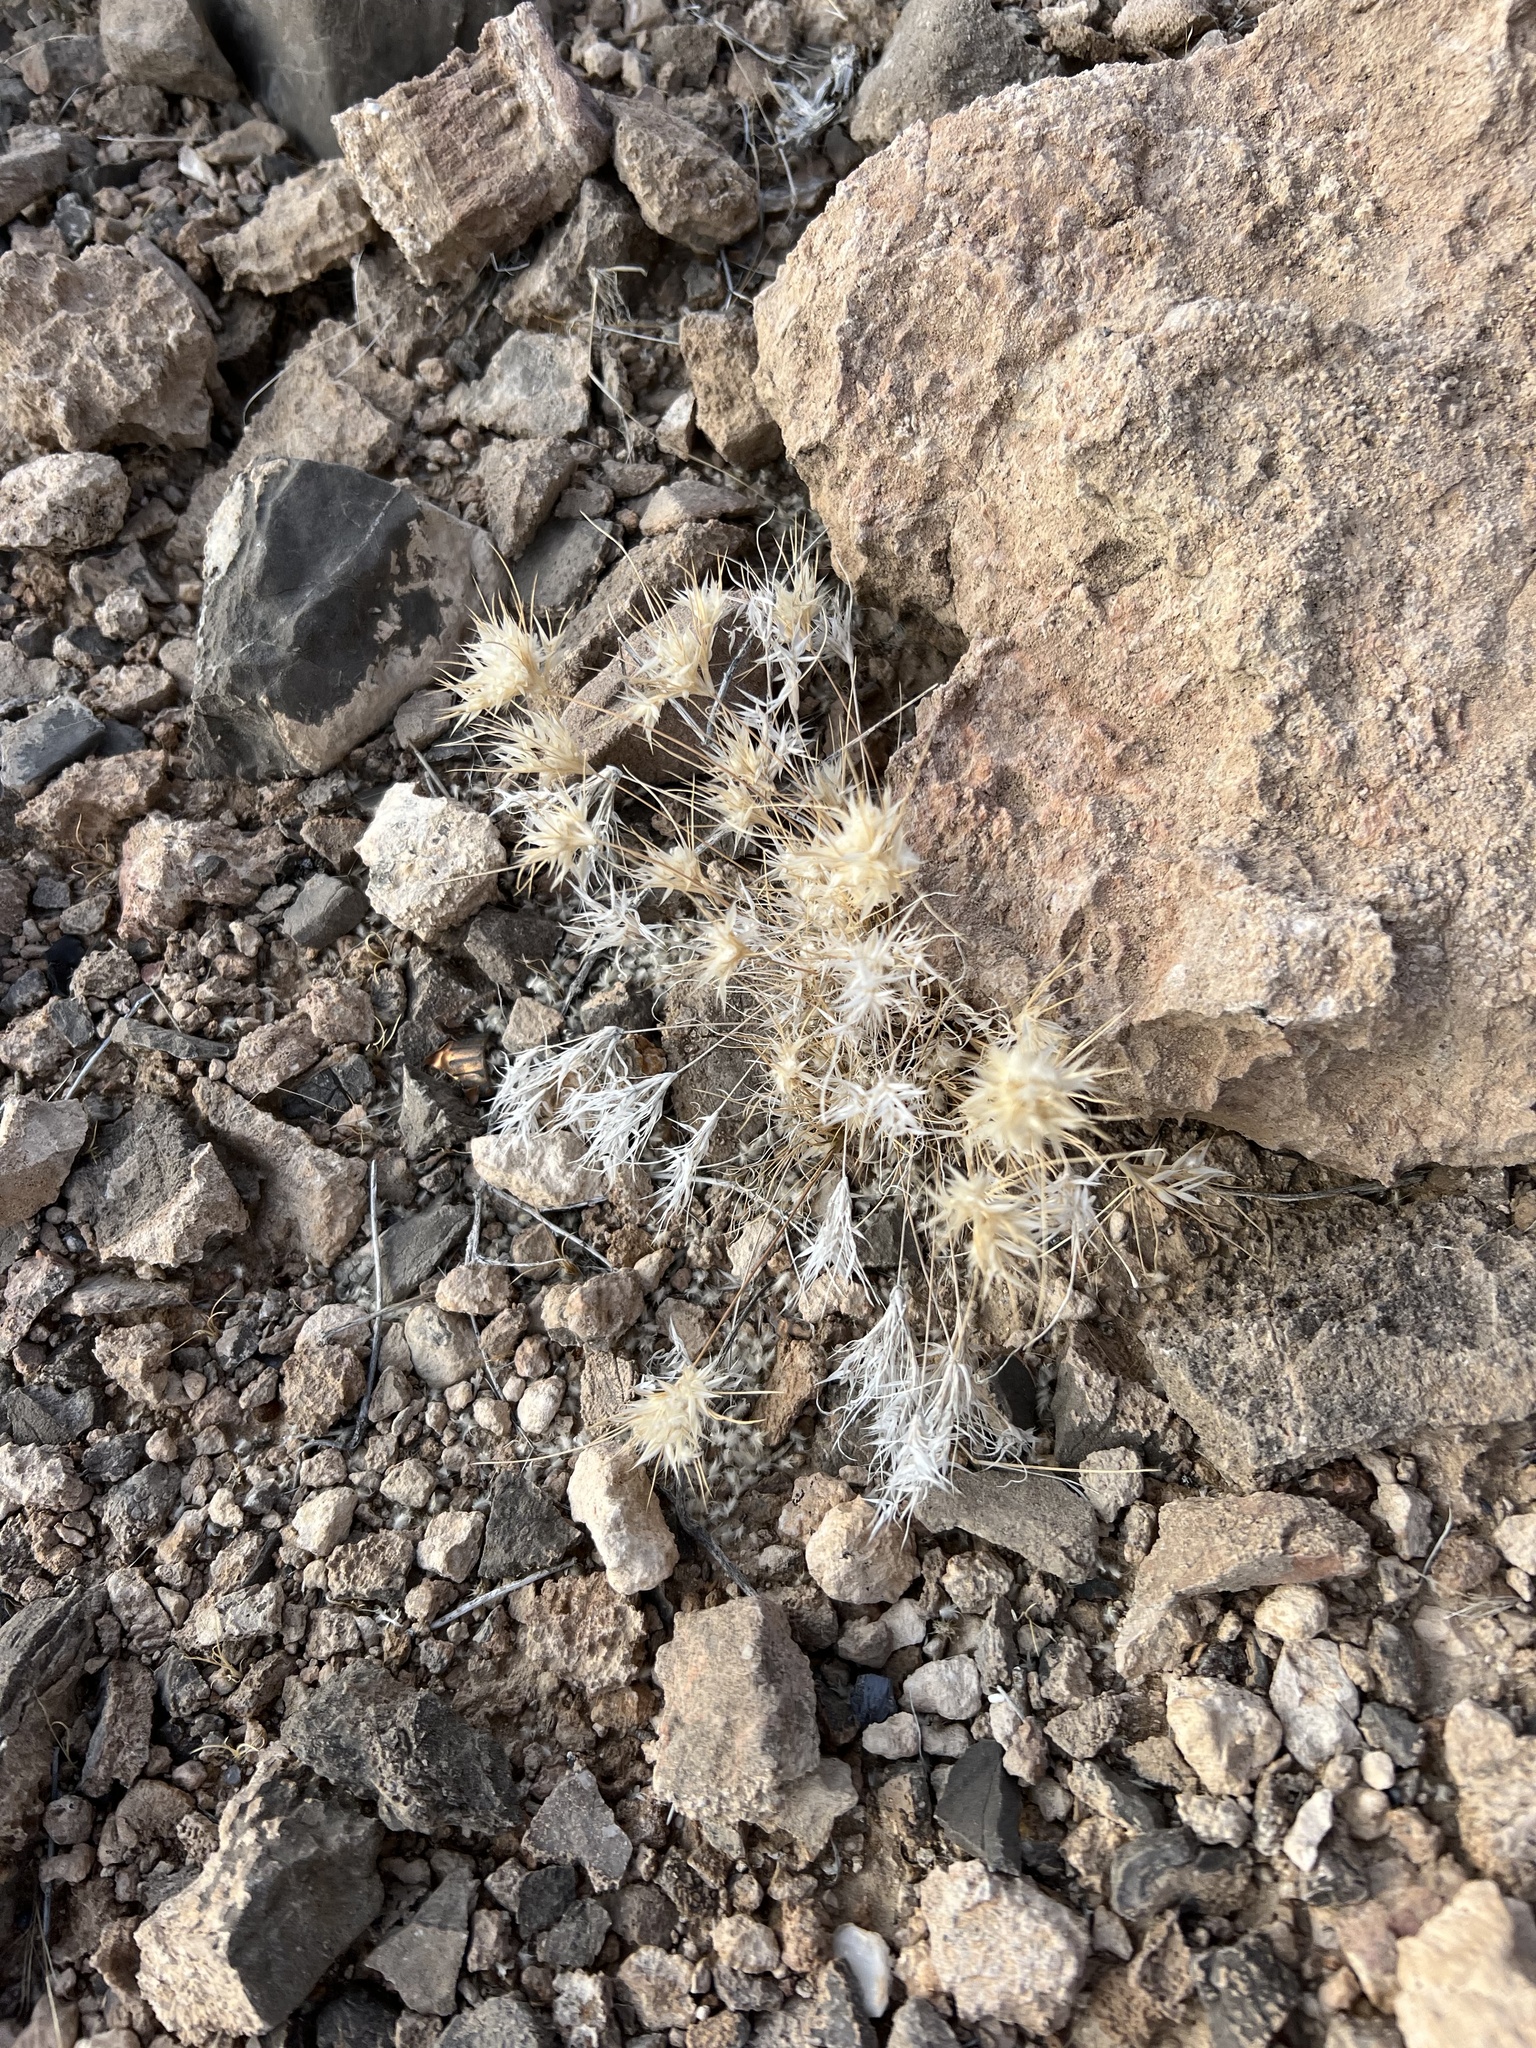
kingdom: Plantae
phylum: Tracheophyta
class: Liliopsida
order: Poales
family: Poaceae
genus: Dasyochloa
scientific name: Dasyochloa pulchella
